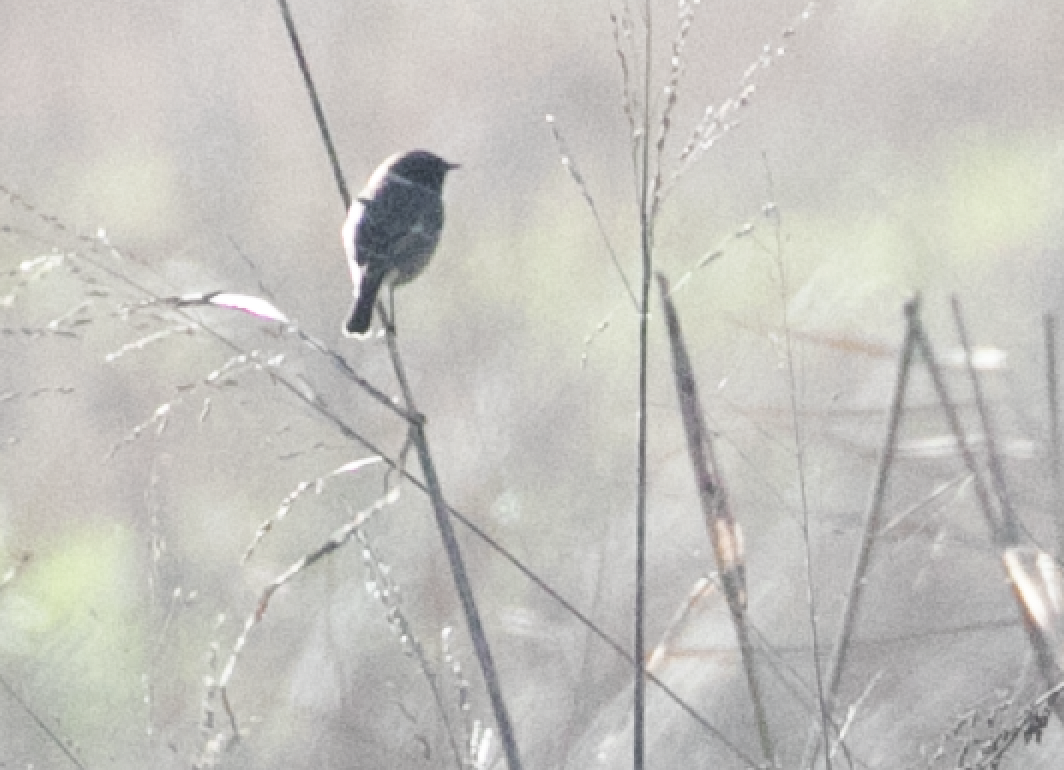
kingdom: Animalia
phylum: Chordata
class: Aves
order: Passeriformes
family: Muscicapidae
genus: Saxicola
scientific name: Saxicola rubicola
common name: European stonechat
